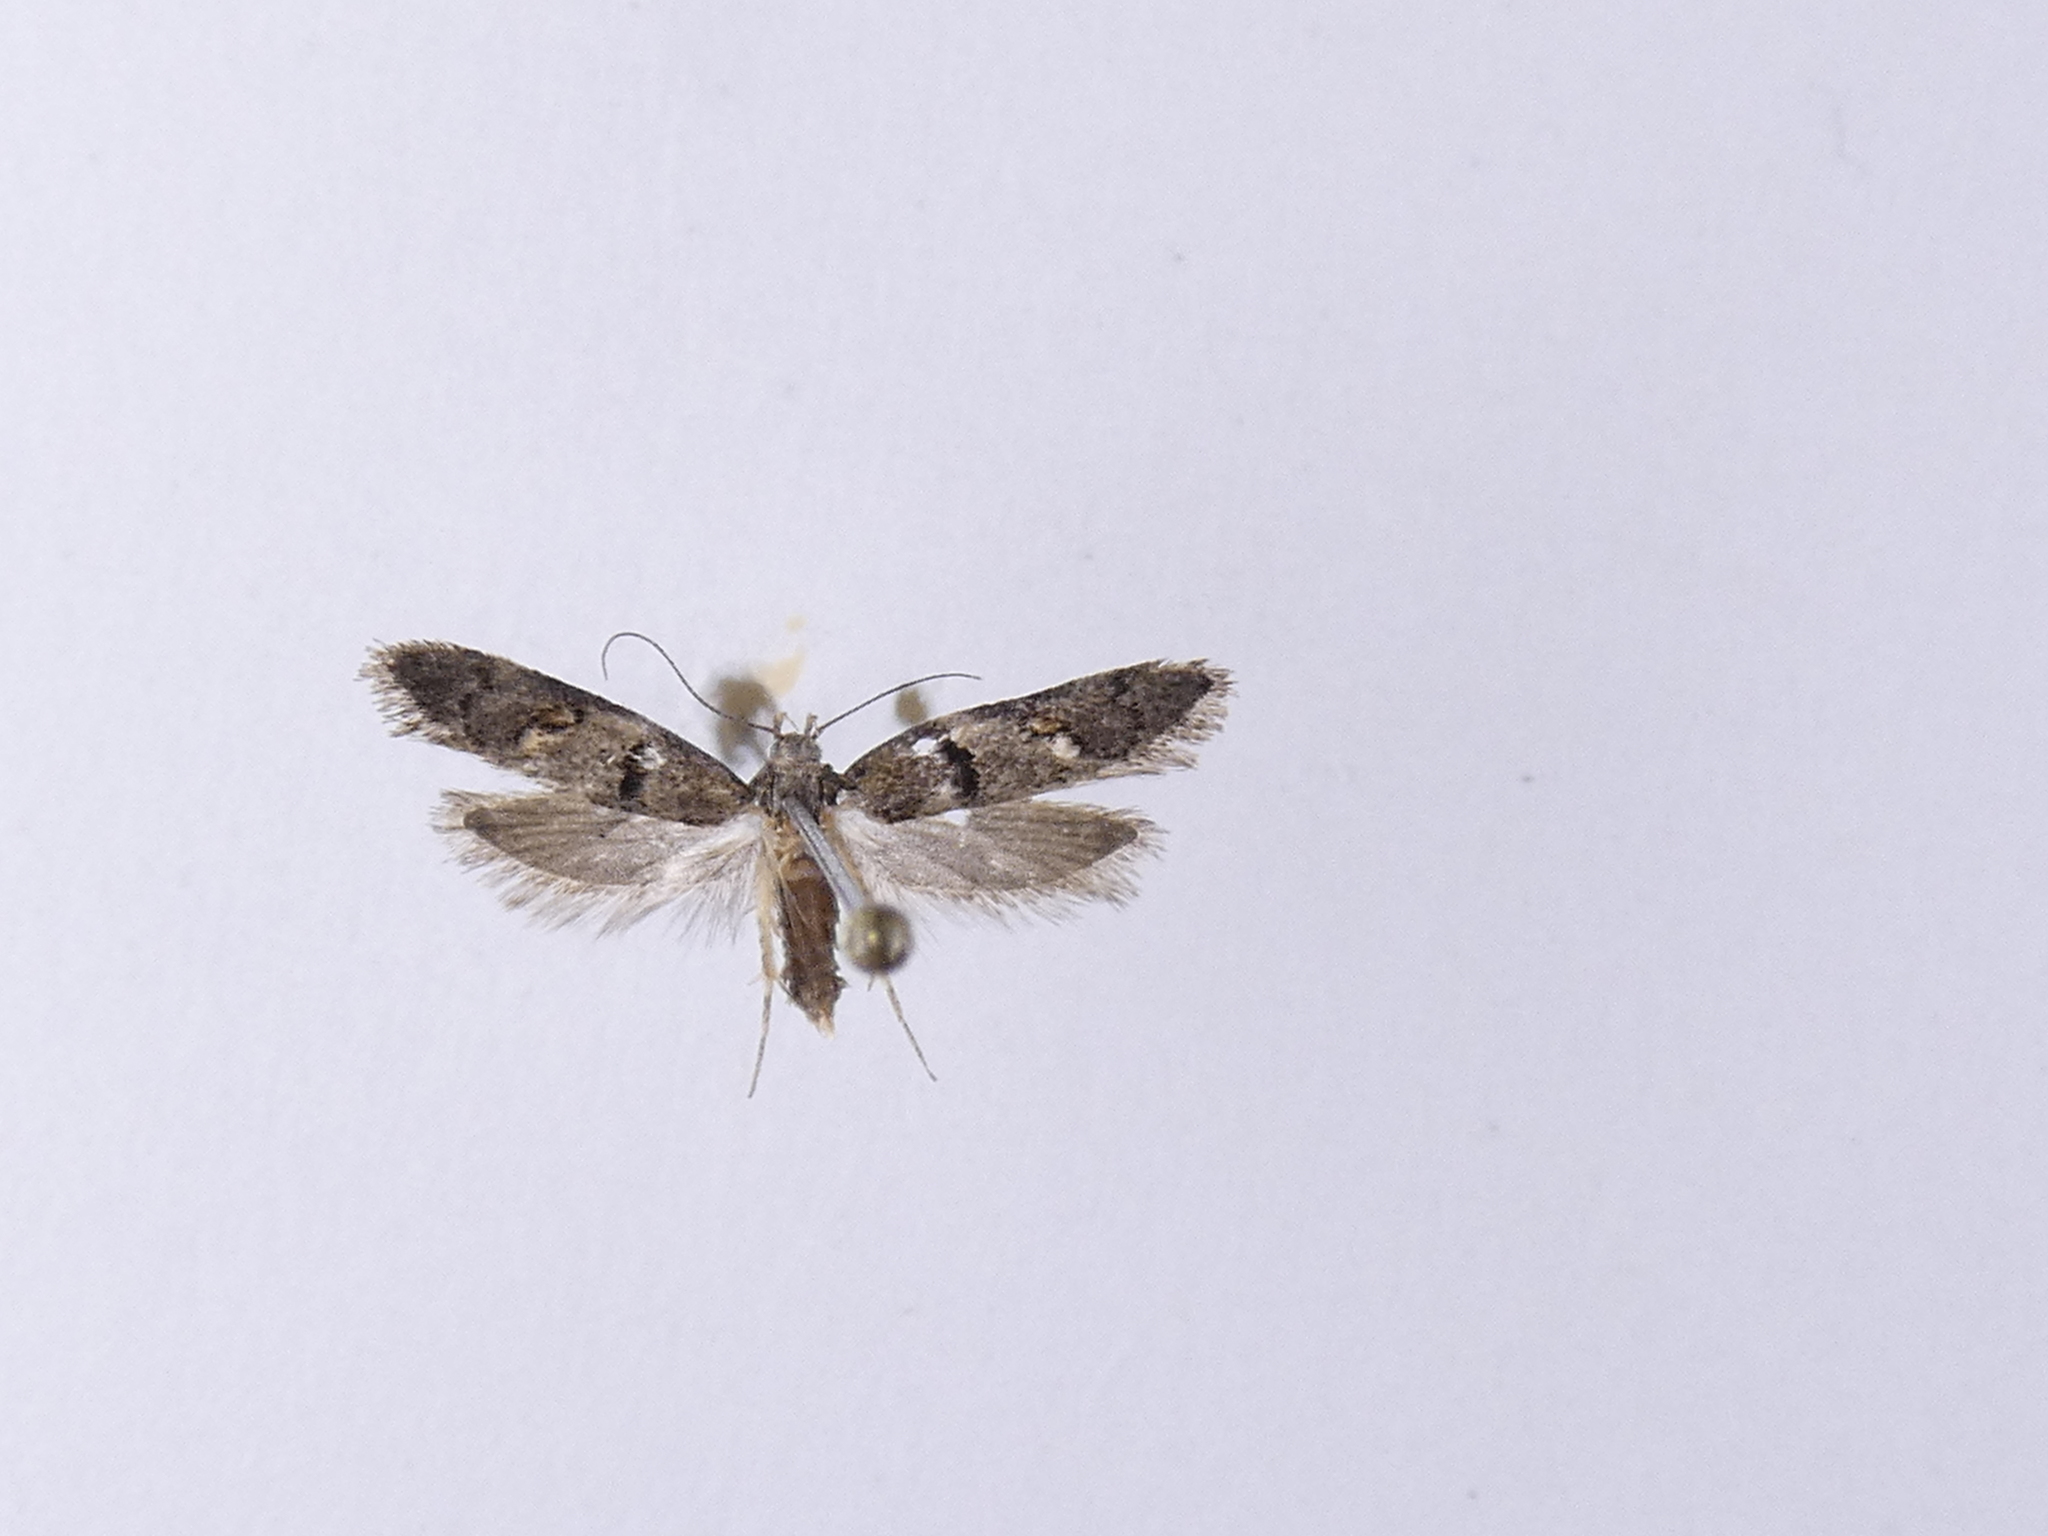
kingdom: Animalia
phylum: Arthropoda
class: Insecta
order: Lepidoptera
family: Oecophoridae
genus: Trachypepla
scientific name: Trachypepla contritella
